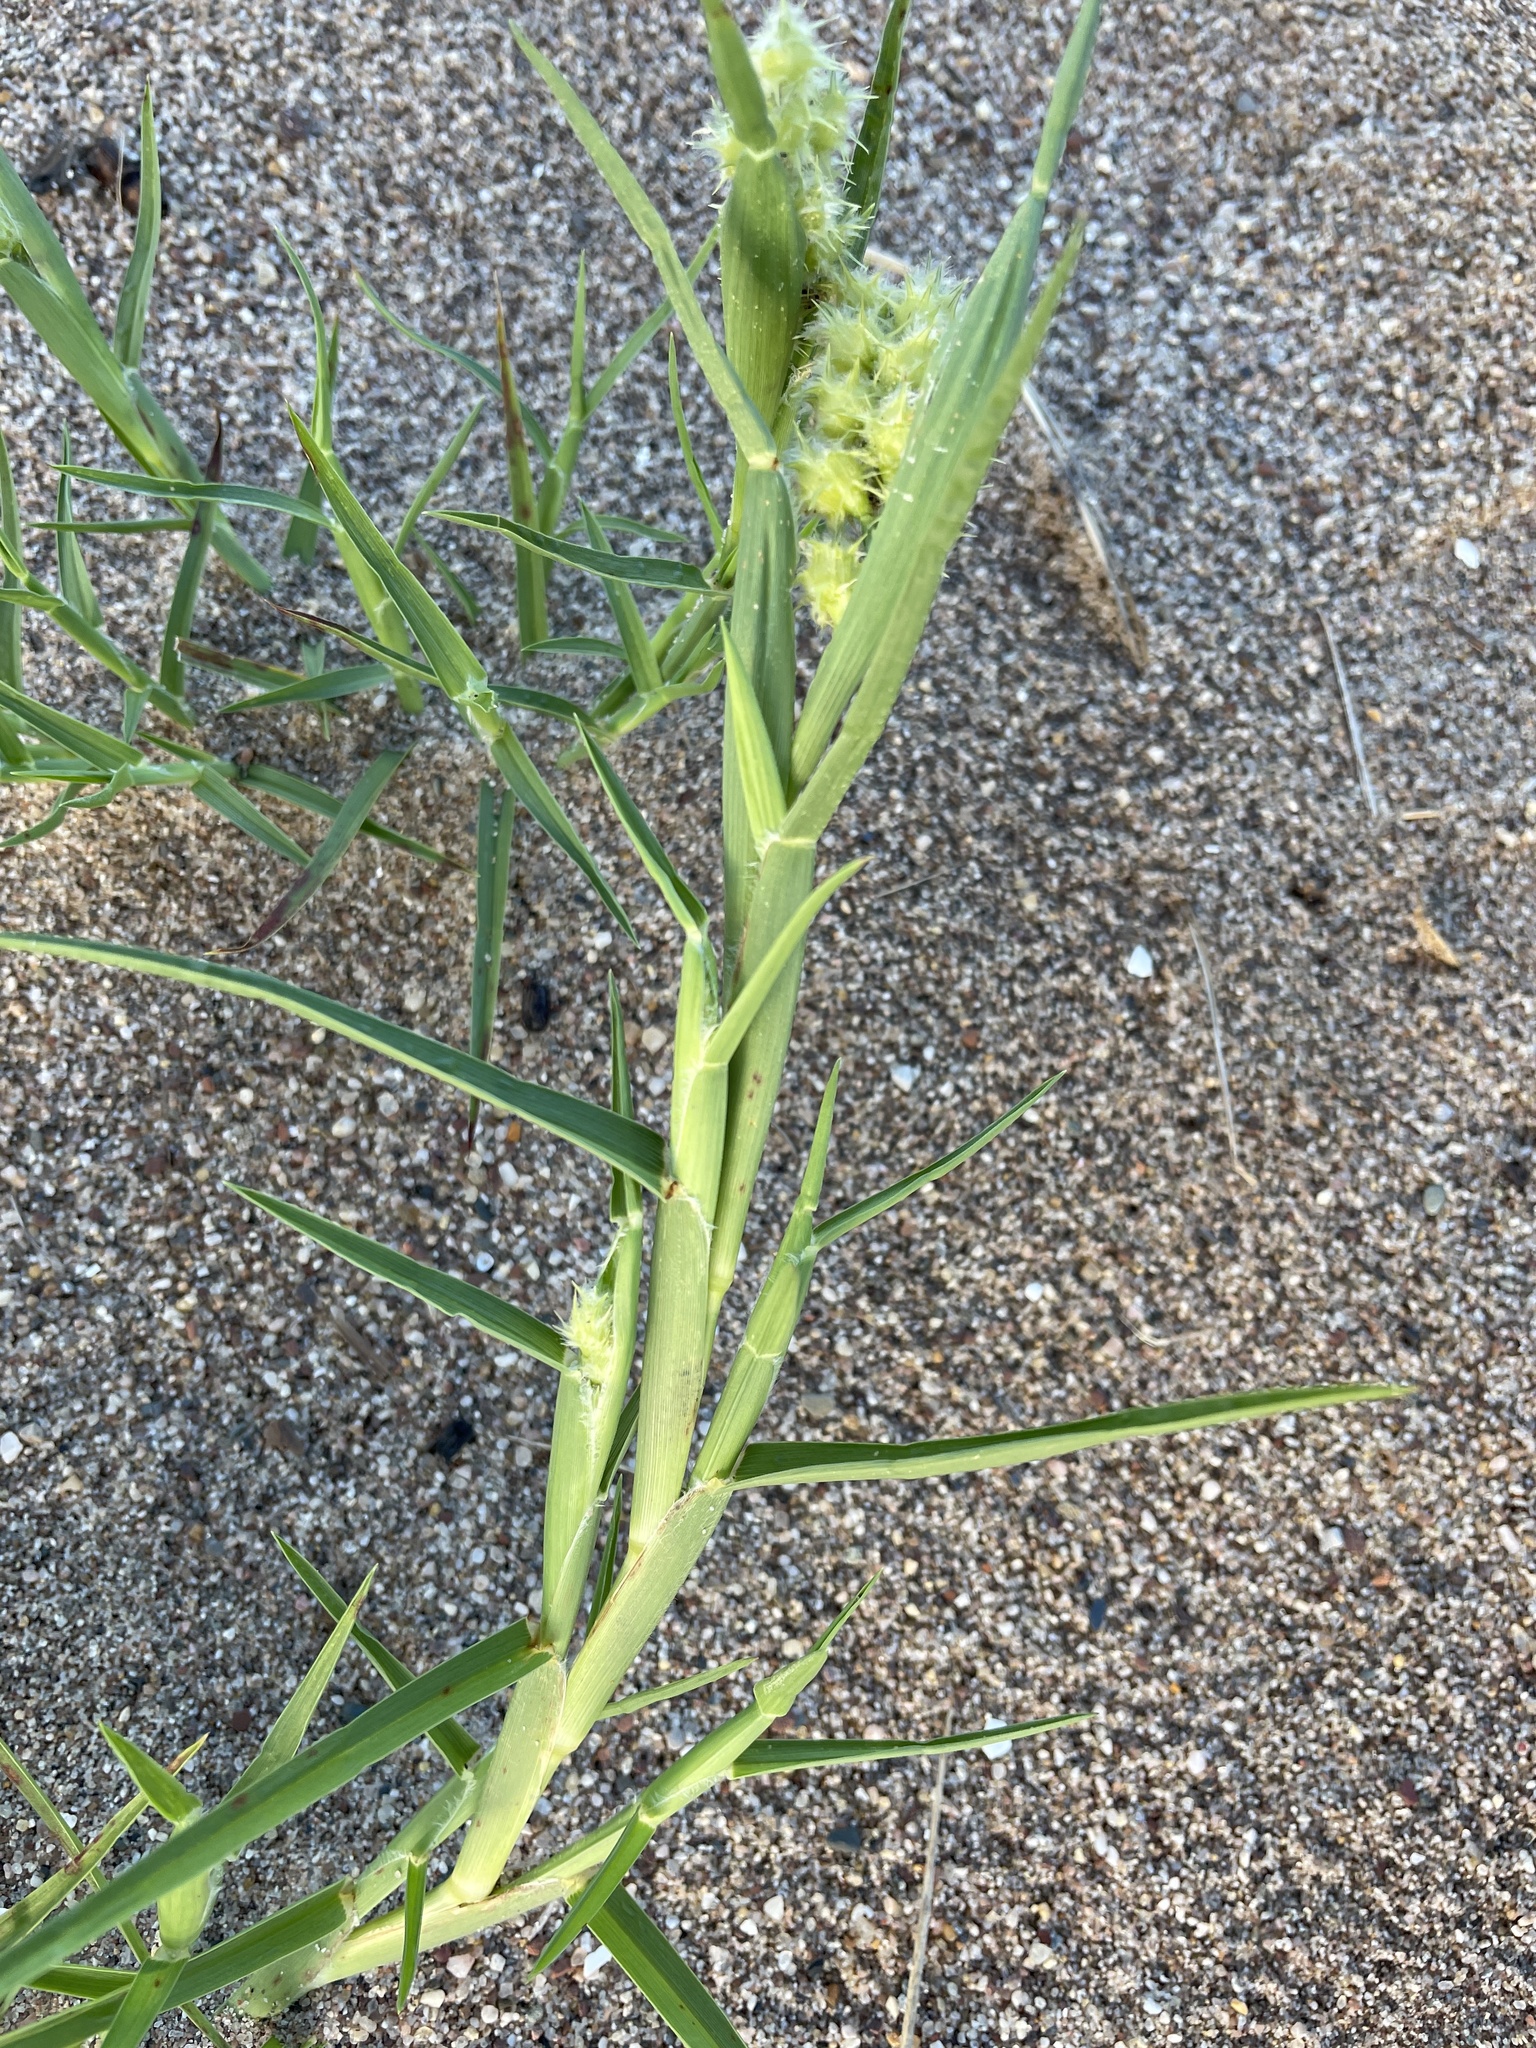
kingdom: Plantae
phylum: Tracheophyta
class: Liliopsida
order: Poales
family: Poaceae
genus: Cenchrus
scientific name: Cenchrus spinifex
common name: Coast sandbur
